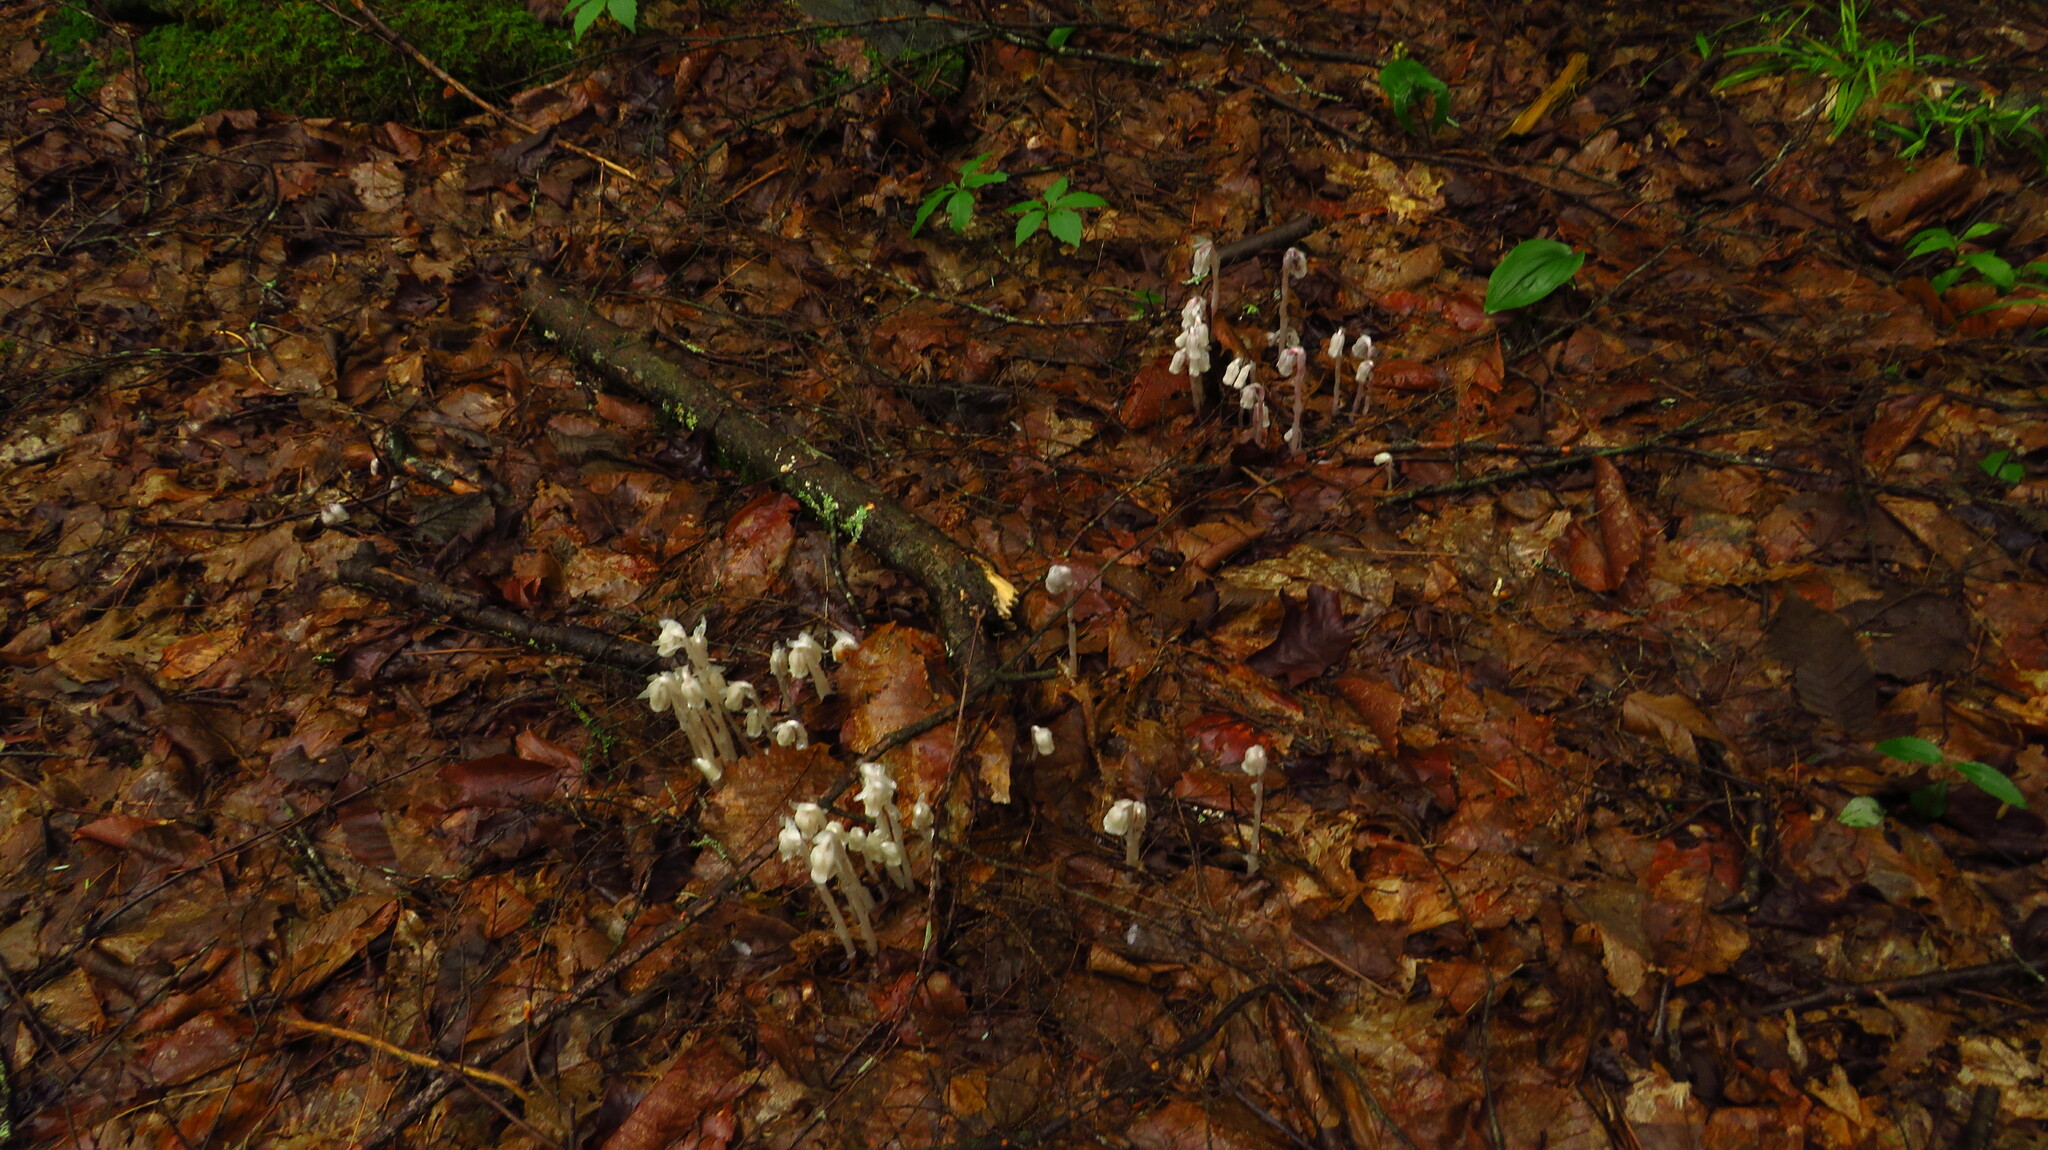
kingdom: Plantae
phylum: Tracheophyta
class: Magnoliopsida
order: Ericales
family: Ericaceae
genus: Monotropa
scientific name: Monotropa uniflora
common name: Convulsion root
